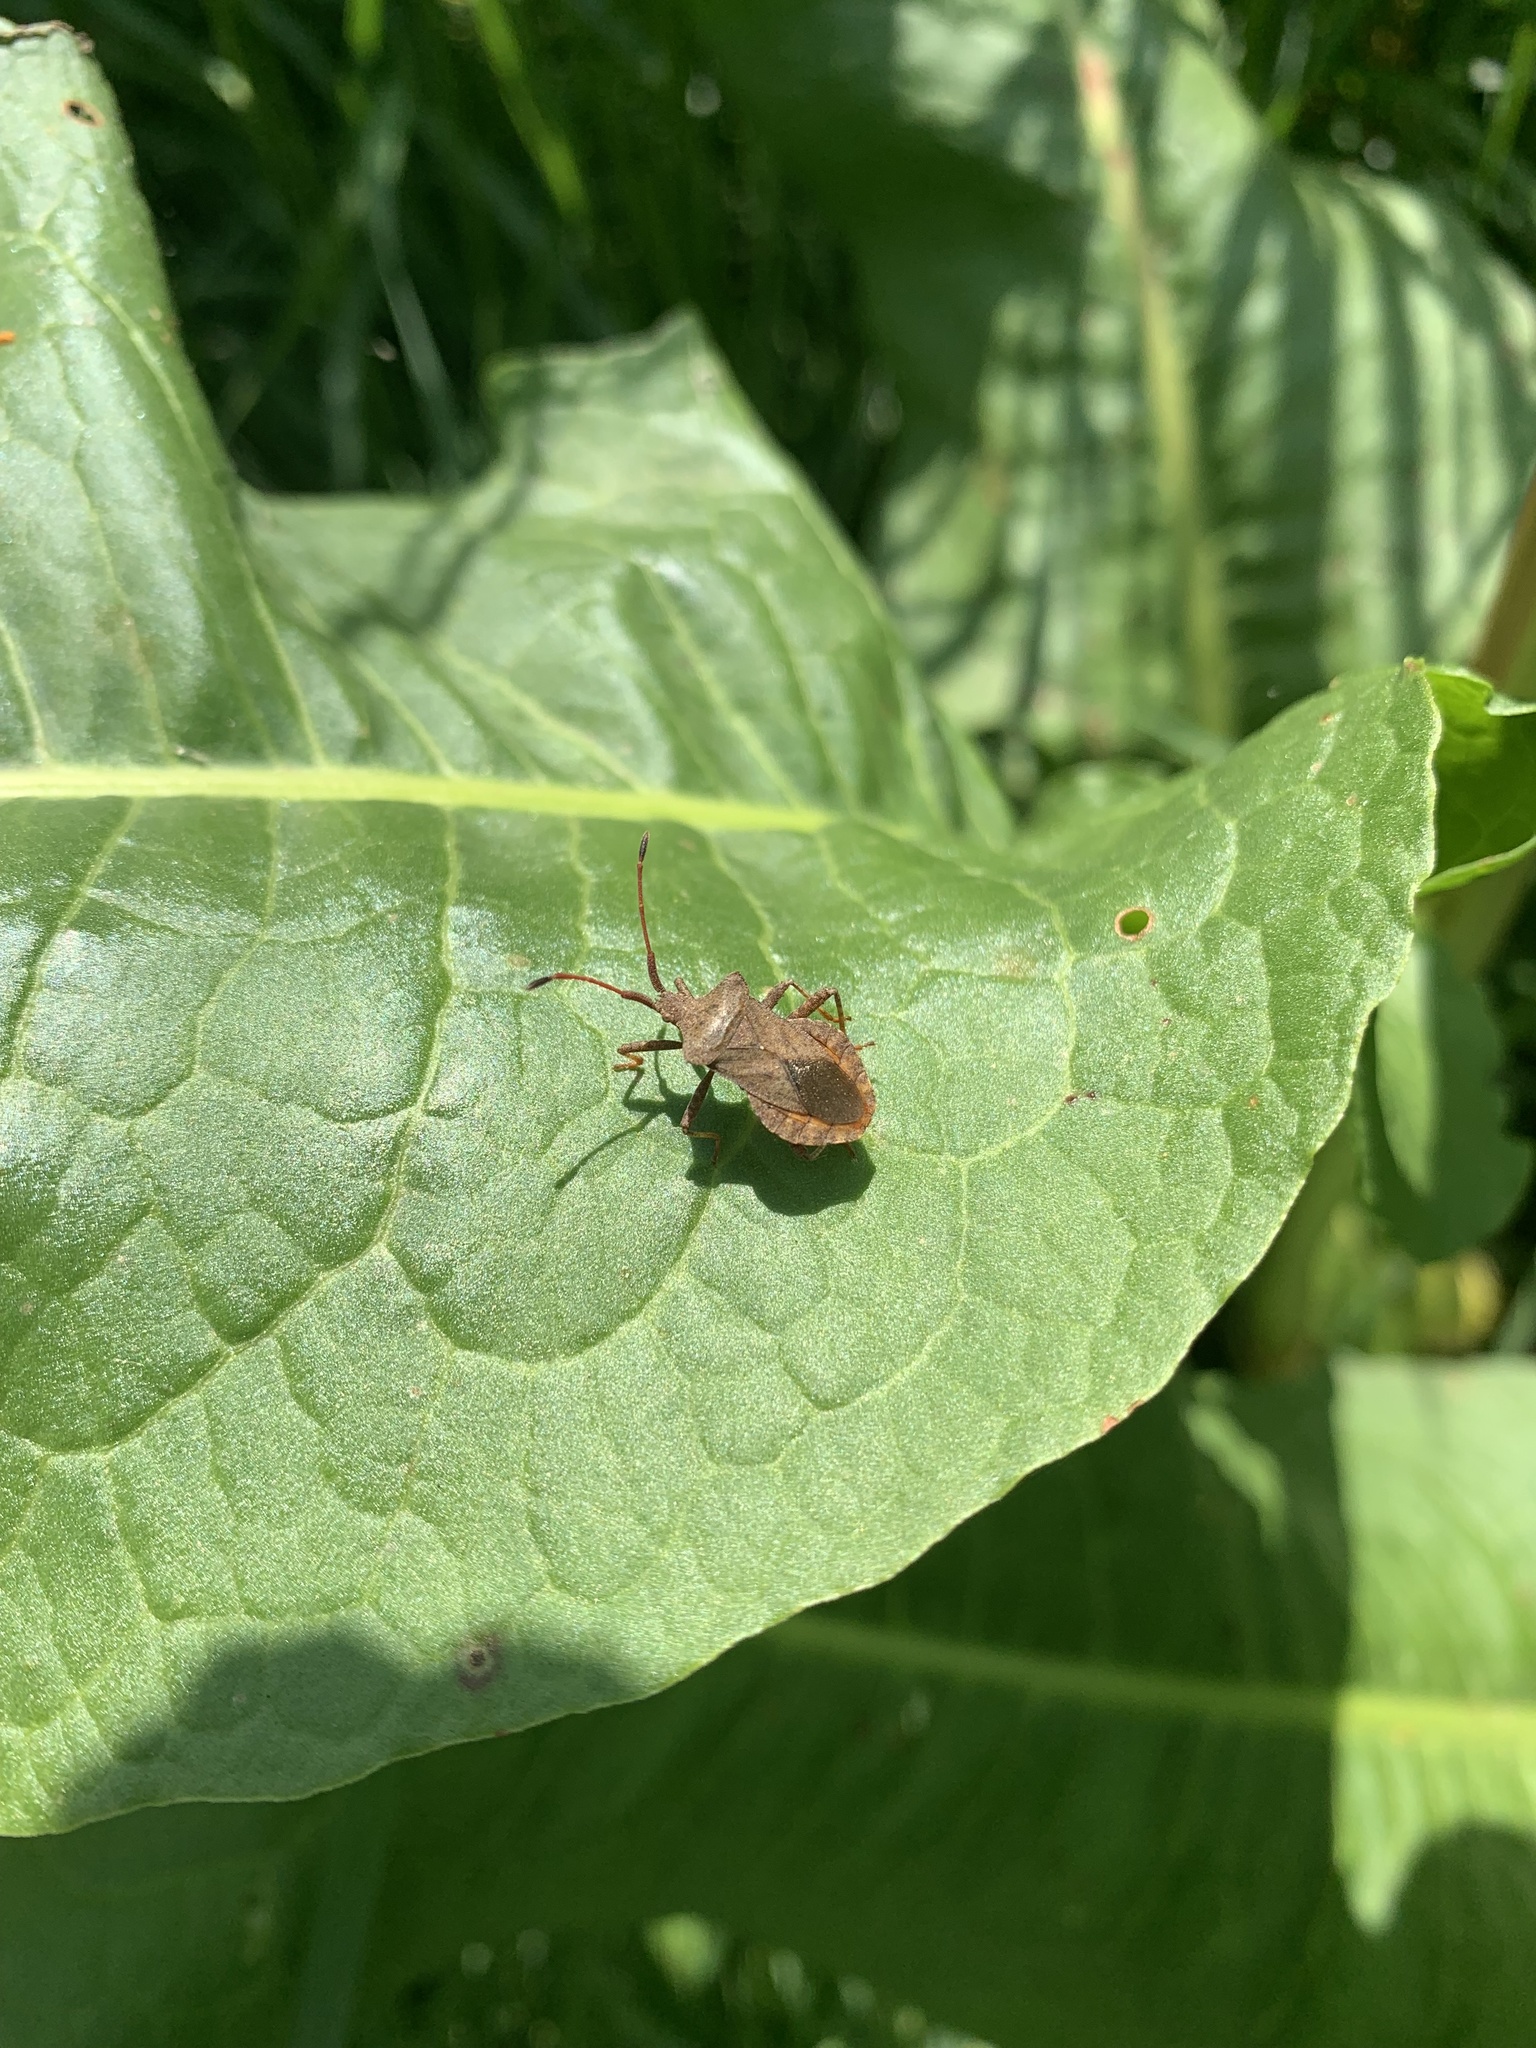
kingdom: Animalia
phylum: Arthropoda
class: Insecta
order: Hemiptera
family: Coreidae
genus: Coreus
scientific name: Coreus marginatus
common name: Dock bug
